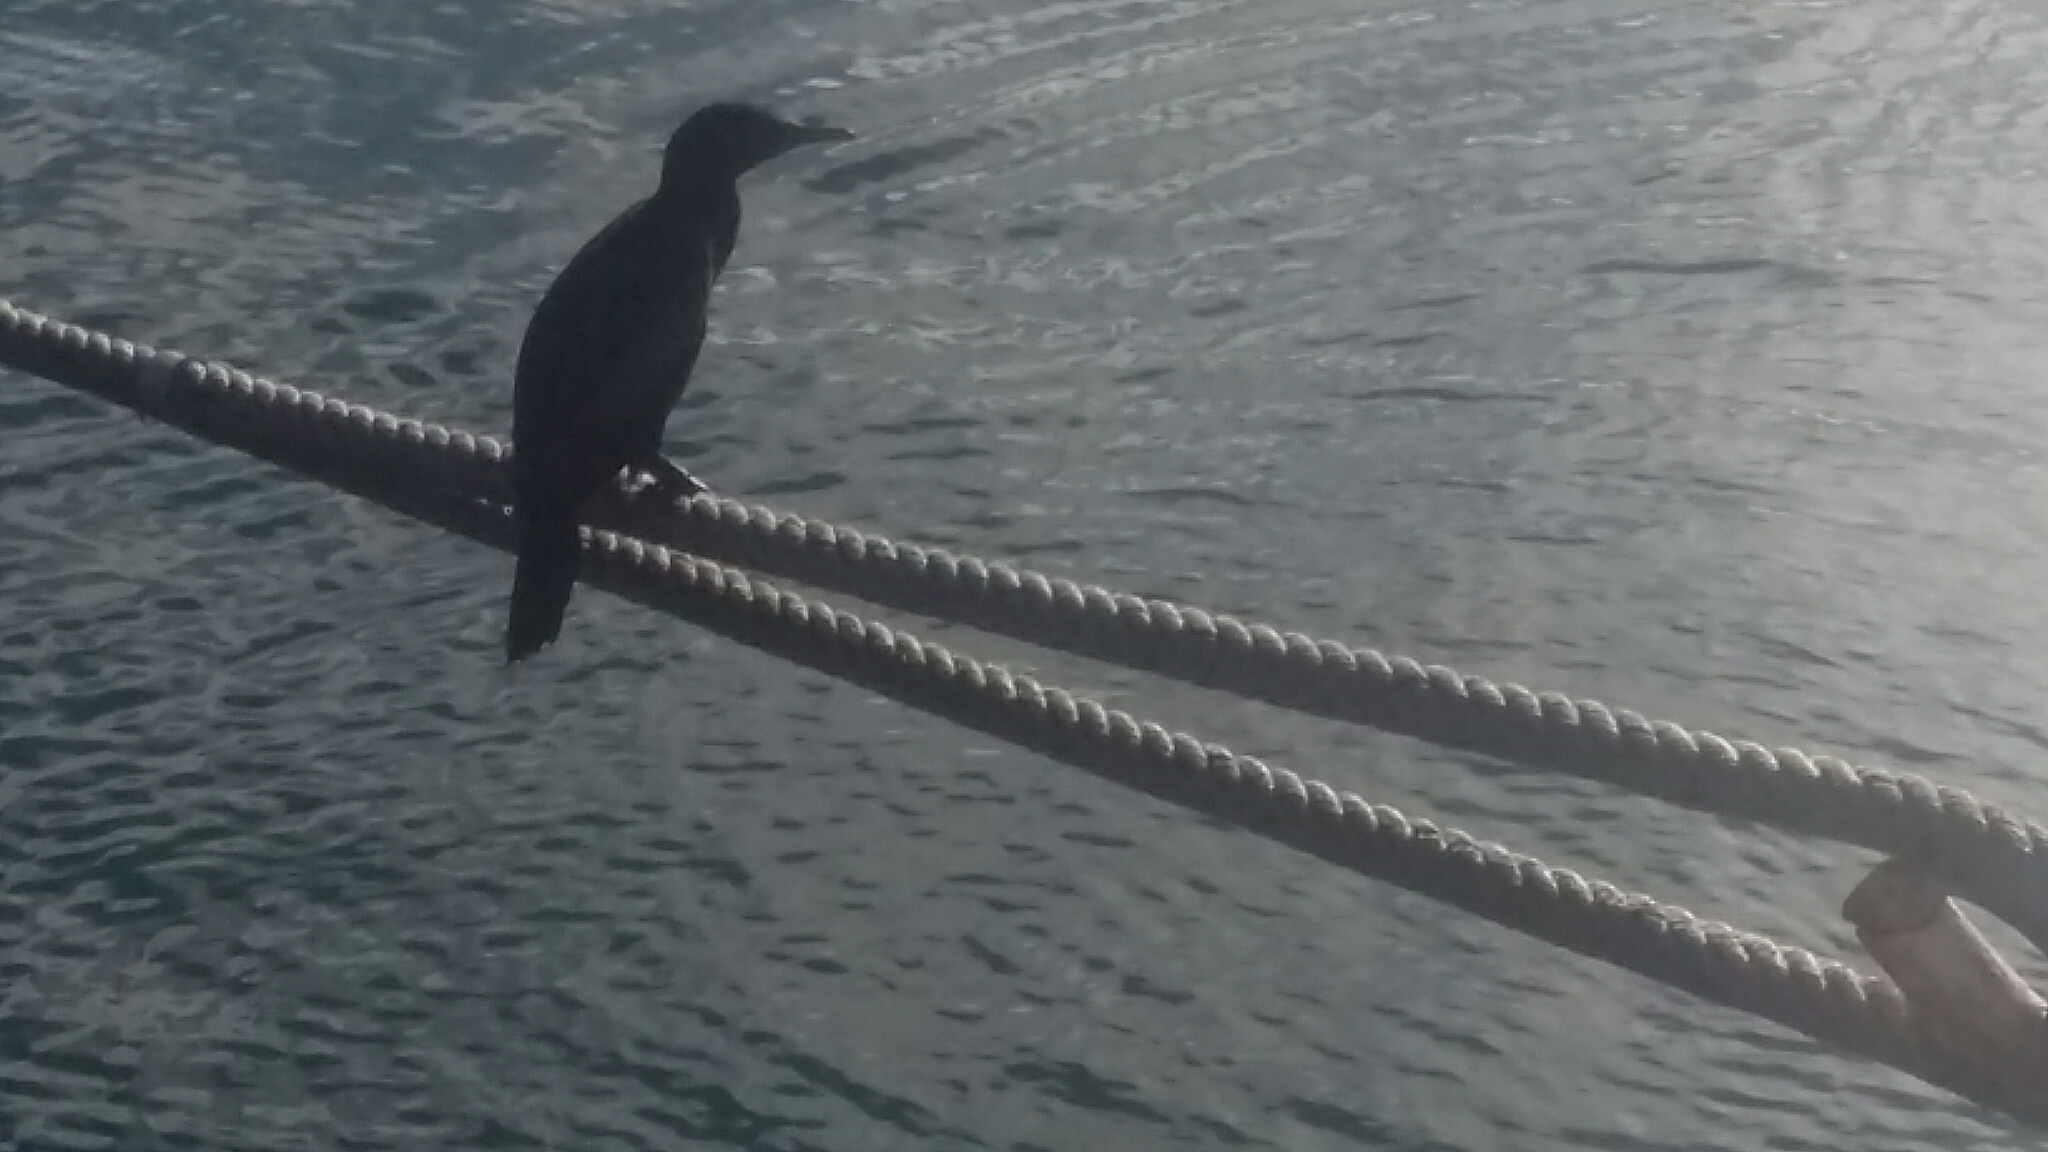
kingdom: Animalia
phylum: Chordata
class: Aves
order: Suliformes
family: Phalacrocoracidae
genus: Phalacrocorax
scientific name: Phalacrocorax carbo
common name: Great cormorant
